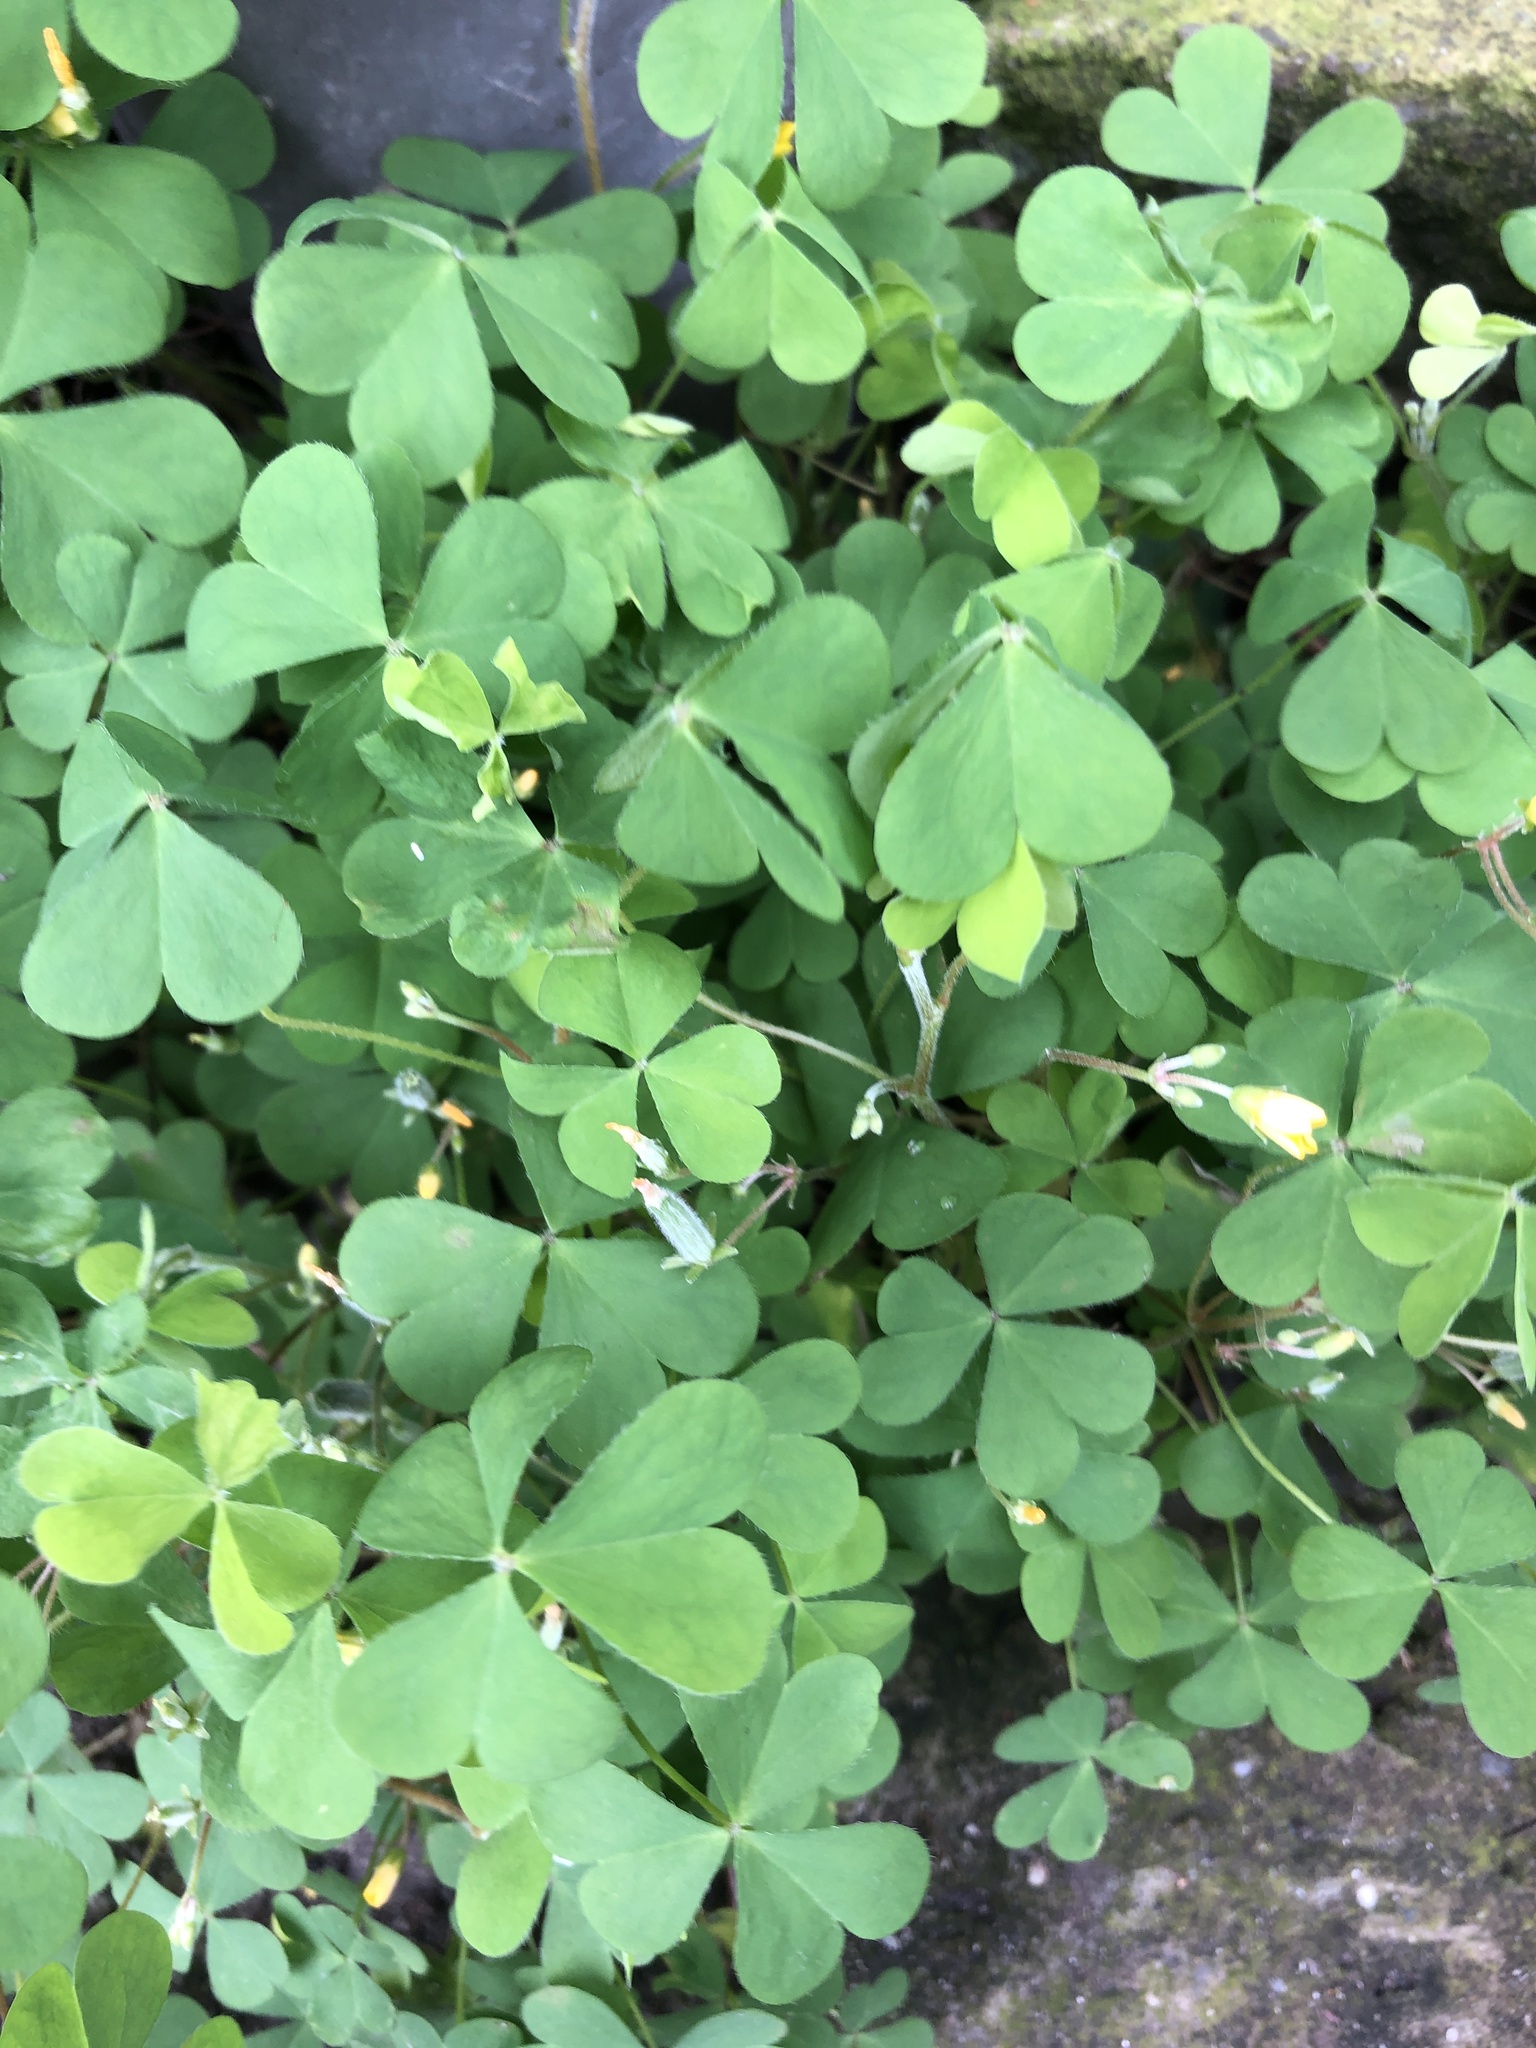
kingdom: Plantae
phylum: Tracheophyta
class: Magnoliopsida
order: Oxalidales
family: Oxalidaceae
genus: Oxalis
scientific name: Oxalis corniculata
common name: Procumbent yellow-sorrel
